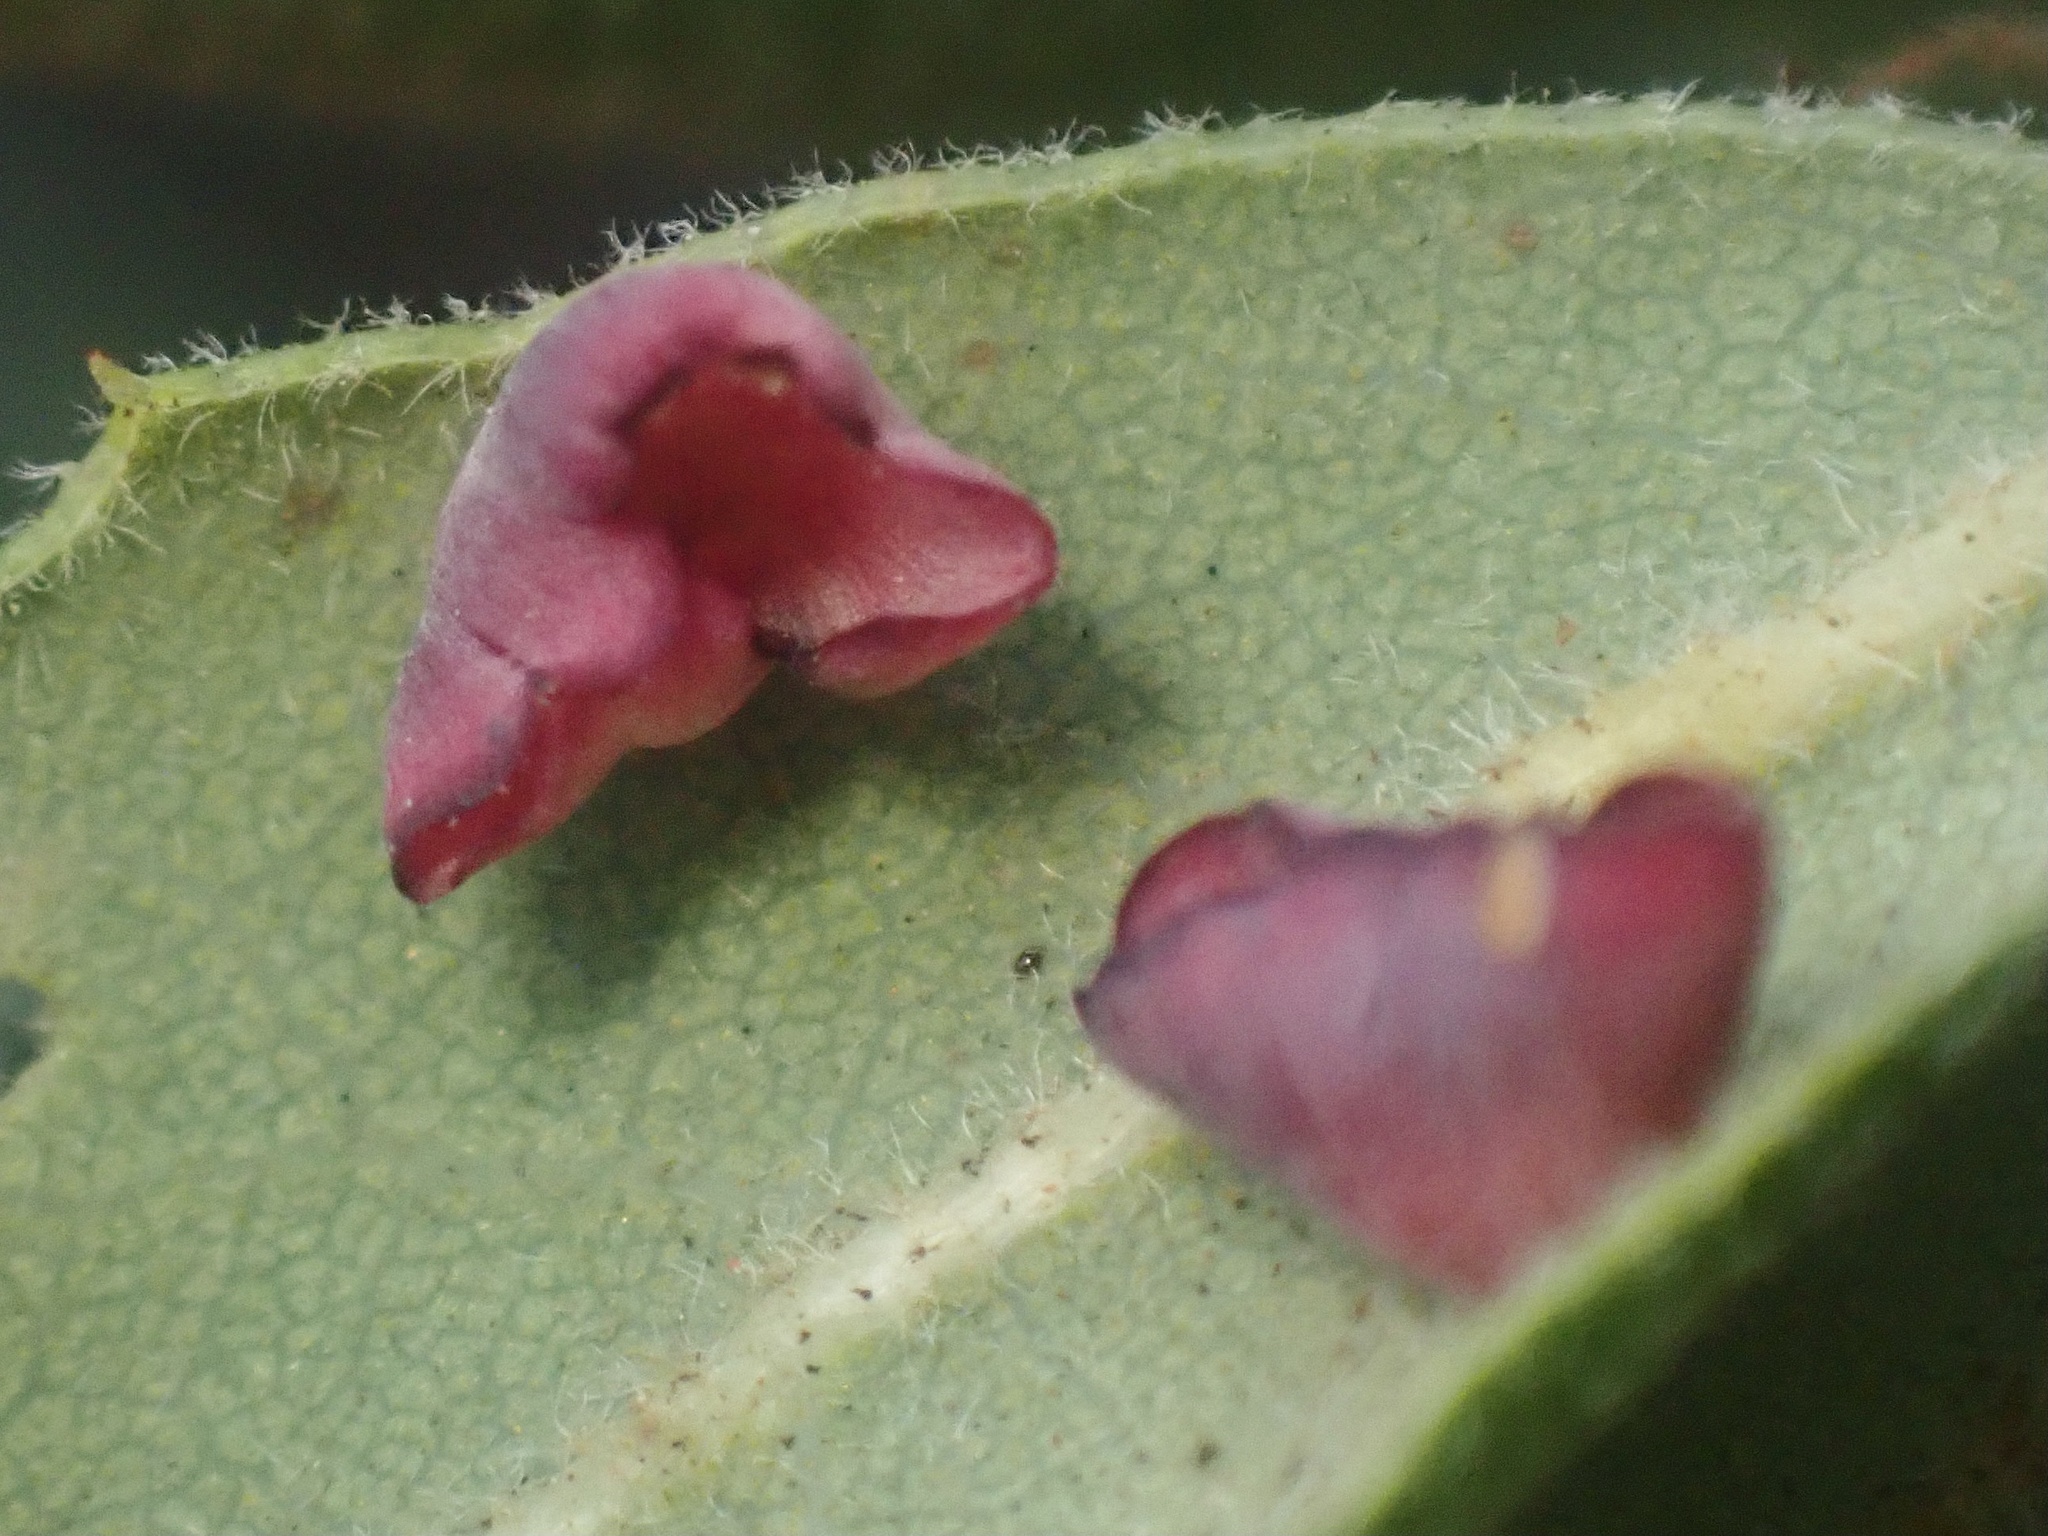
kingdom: Animalia
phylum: Arthropoda
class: Insecta
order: Hymenoptera
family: Cynipidae
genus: Andricus
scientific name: Andricus
